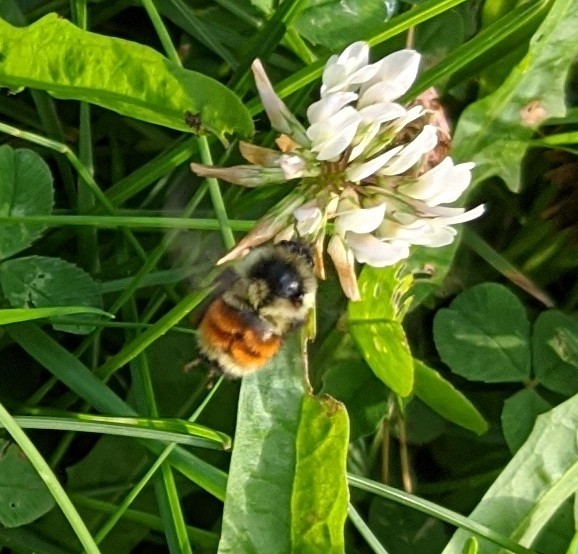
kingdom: Animalia
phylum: Arthropoda
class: Insecta
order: Hymenoptera
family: Apidae
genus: Bombus
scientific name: Bombus ternarius
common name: Tri-colored bumble bee
